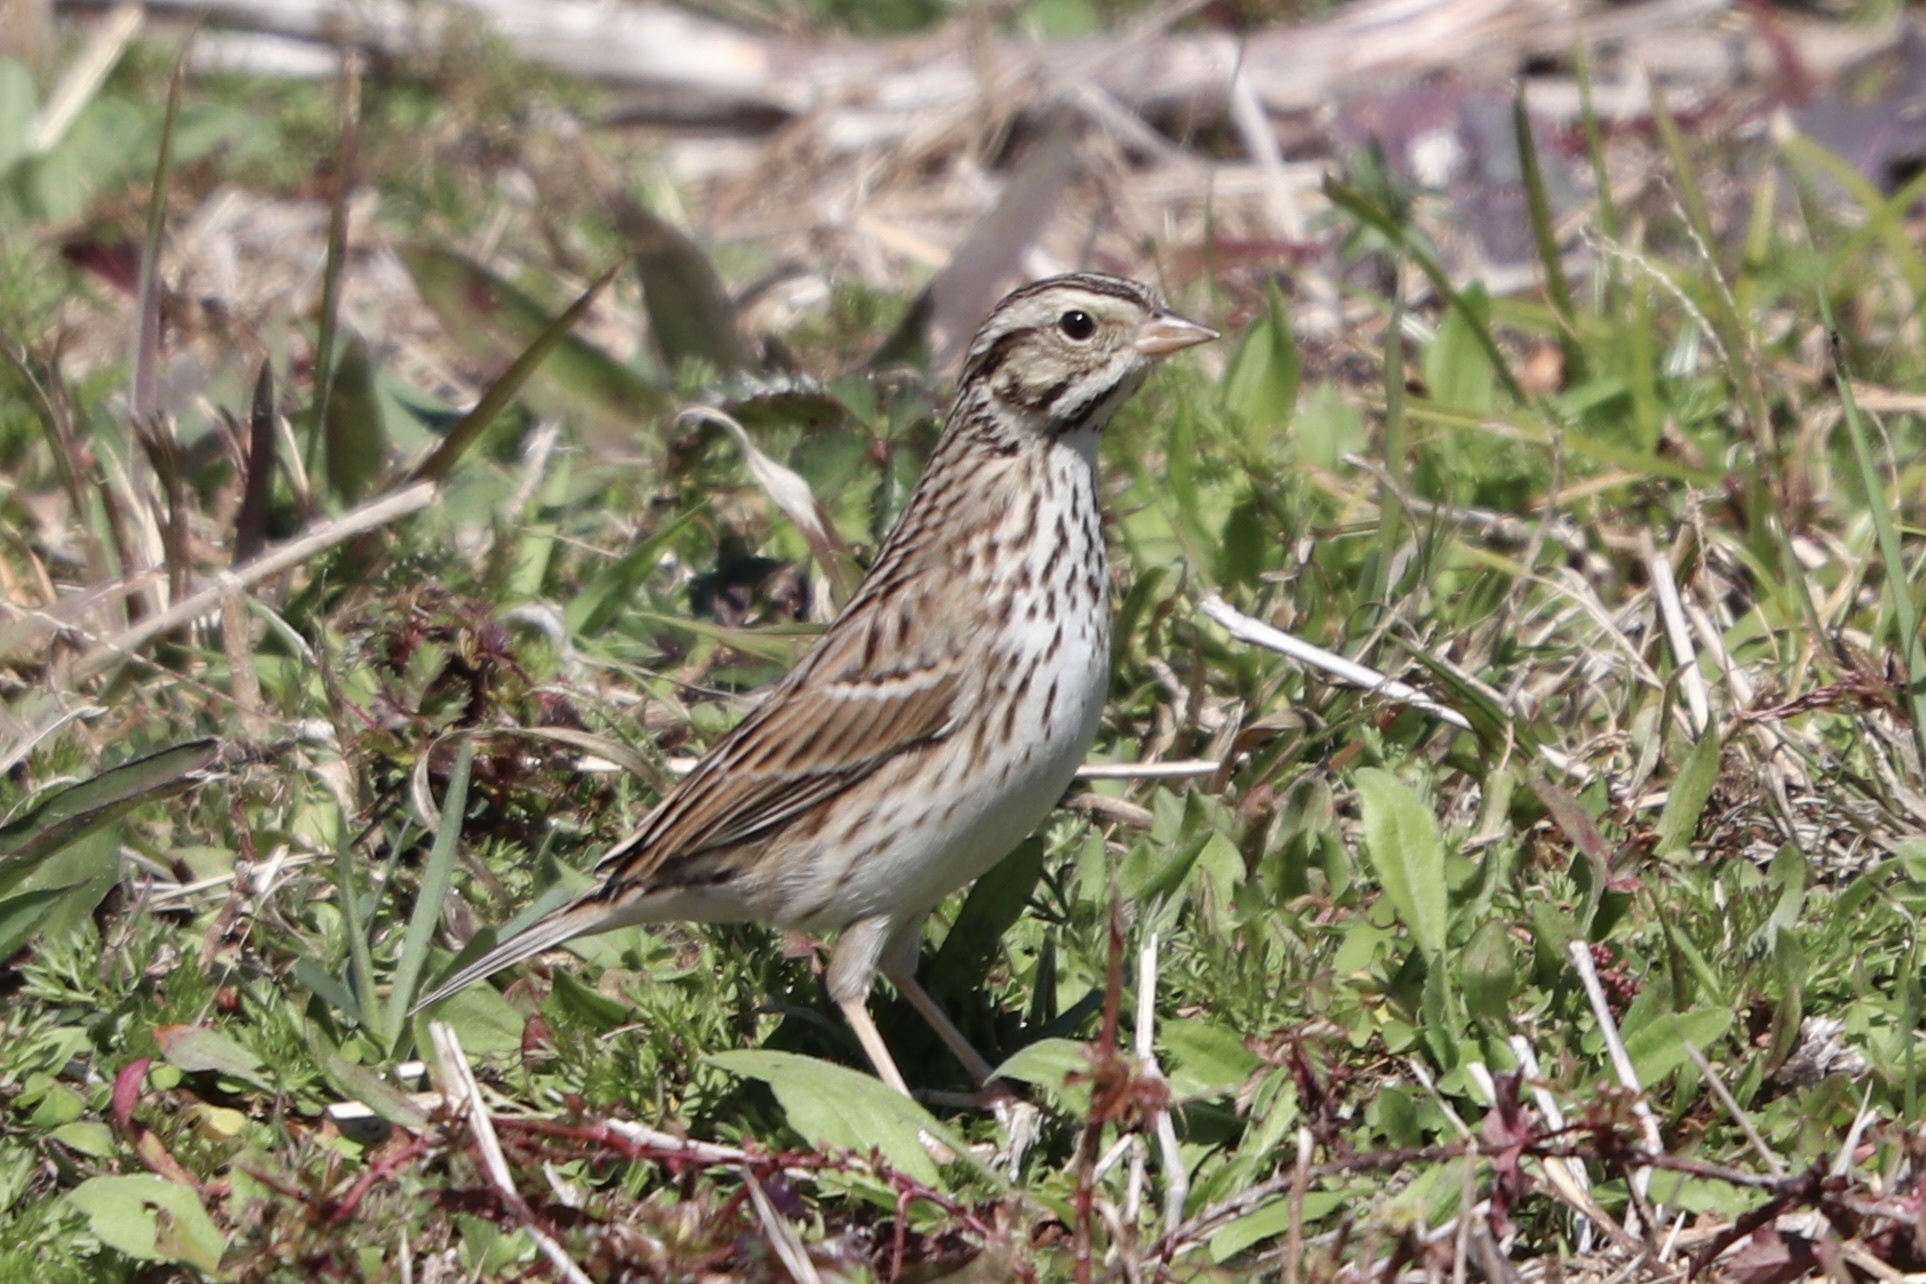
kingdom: Animalia
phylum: Chordata
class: Aves
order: Passeriformes
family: Passerellidae
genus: Passerculus
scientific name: Passerculus sandwichensis
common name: Savannah sparrow
